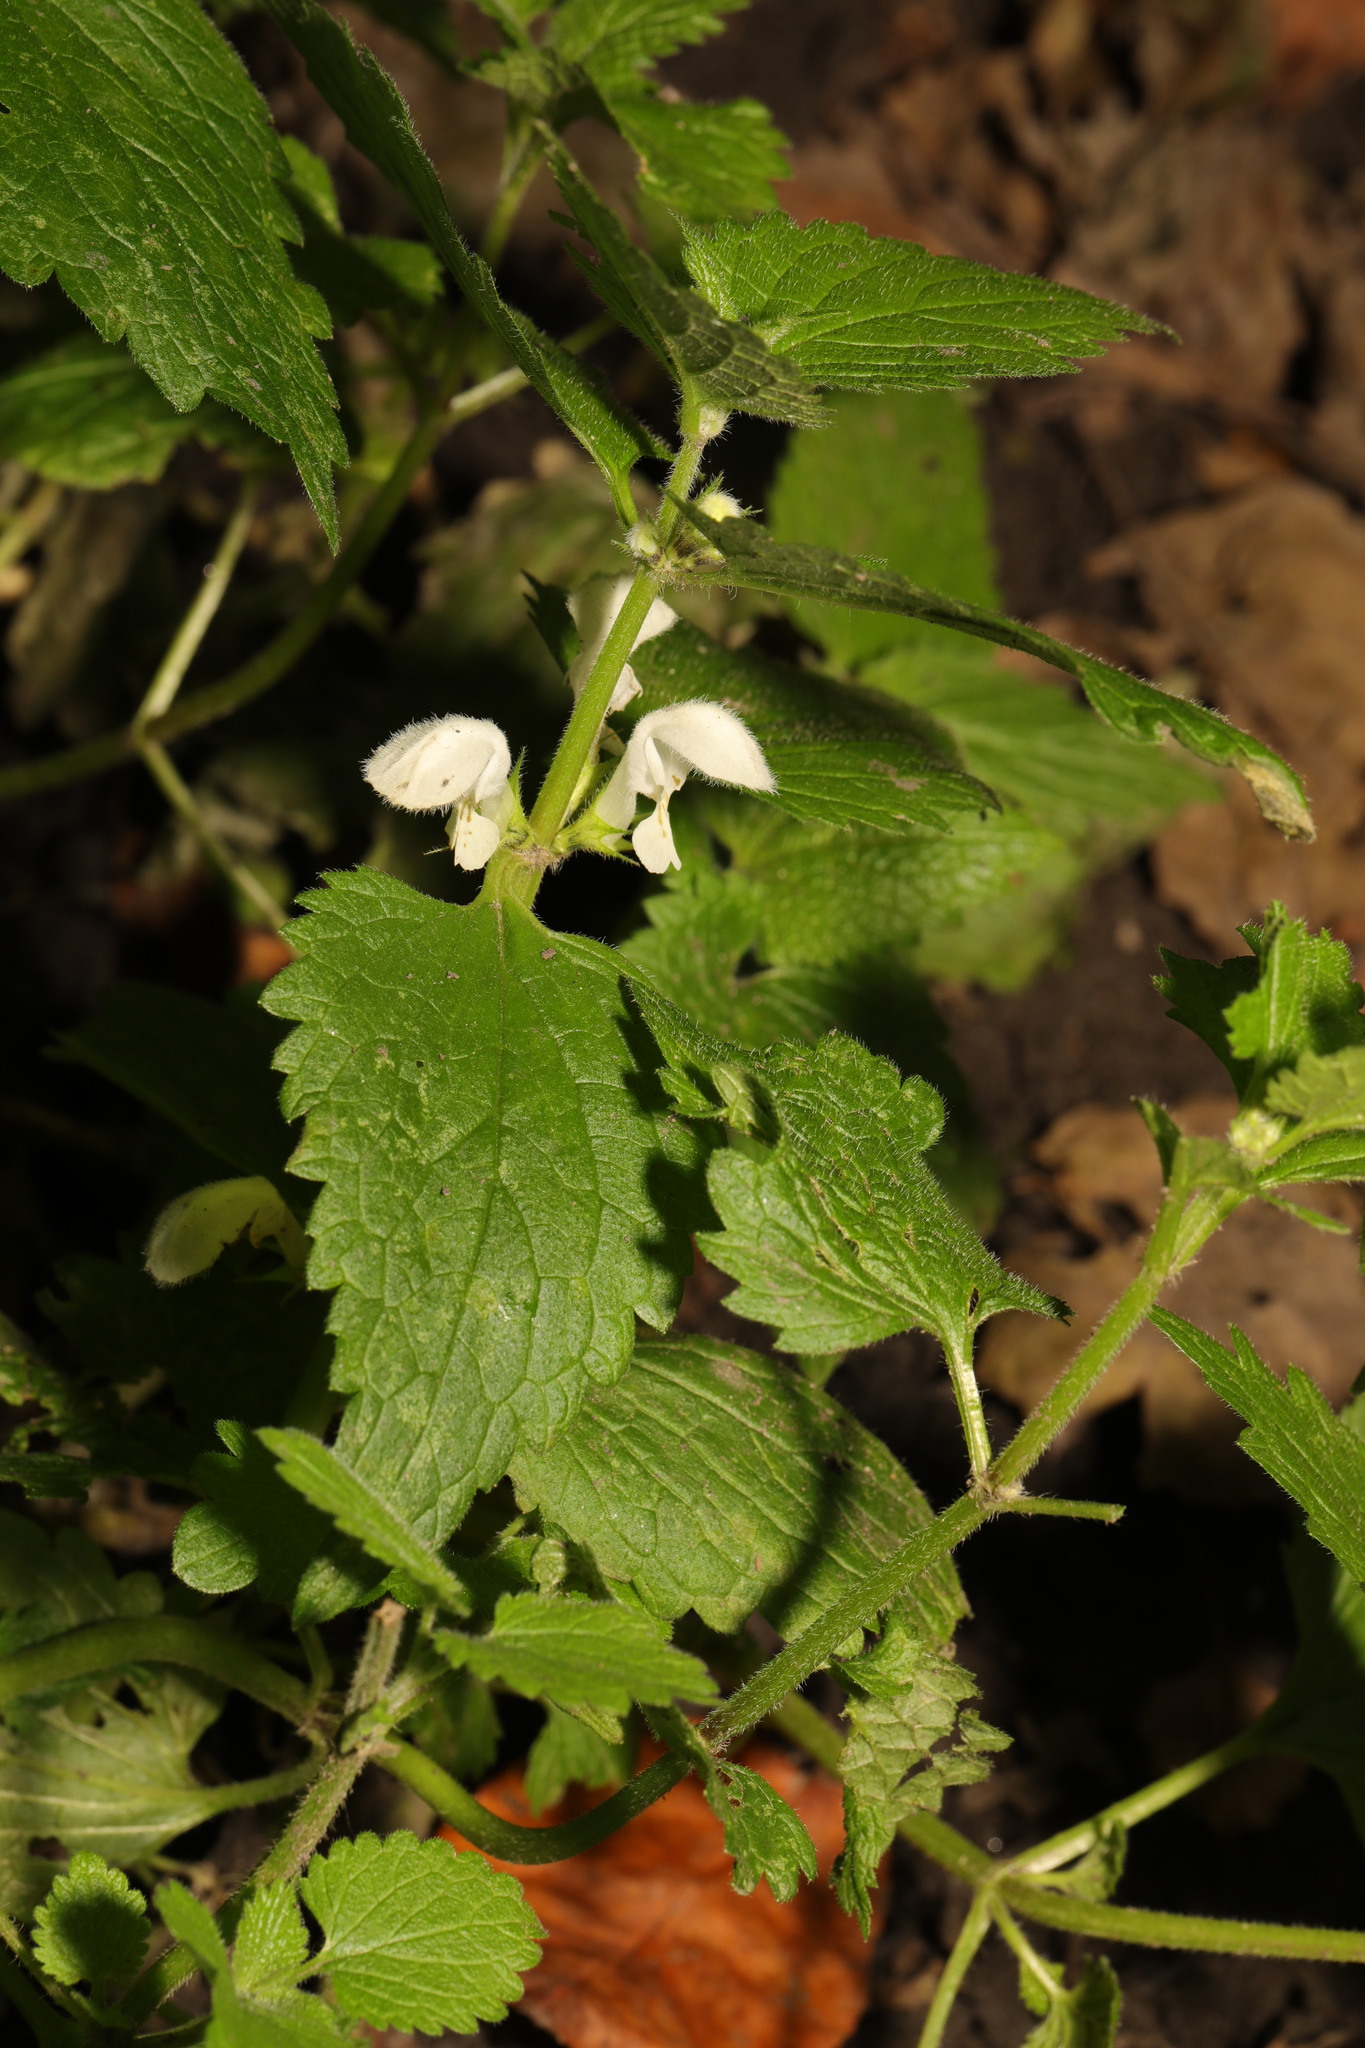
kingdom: Plantae
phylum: Tracheophyta
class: Magnoliopsida
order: Lamiales
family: Lamiaceae
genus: Lamium
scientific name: Lamium album
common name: White dead-nettle
